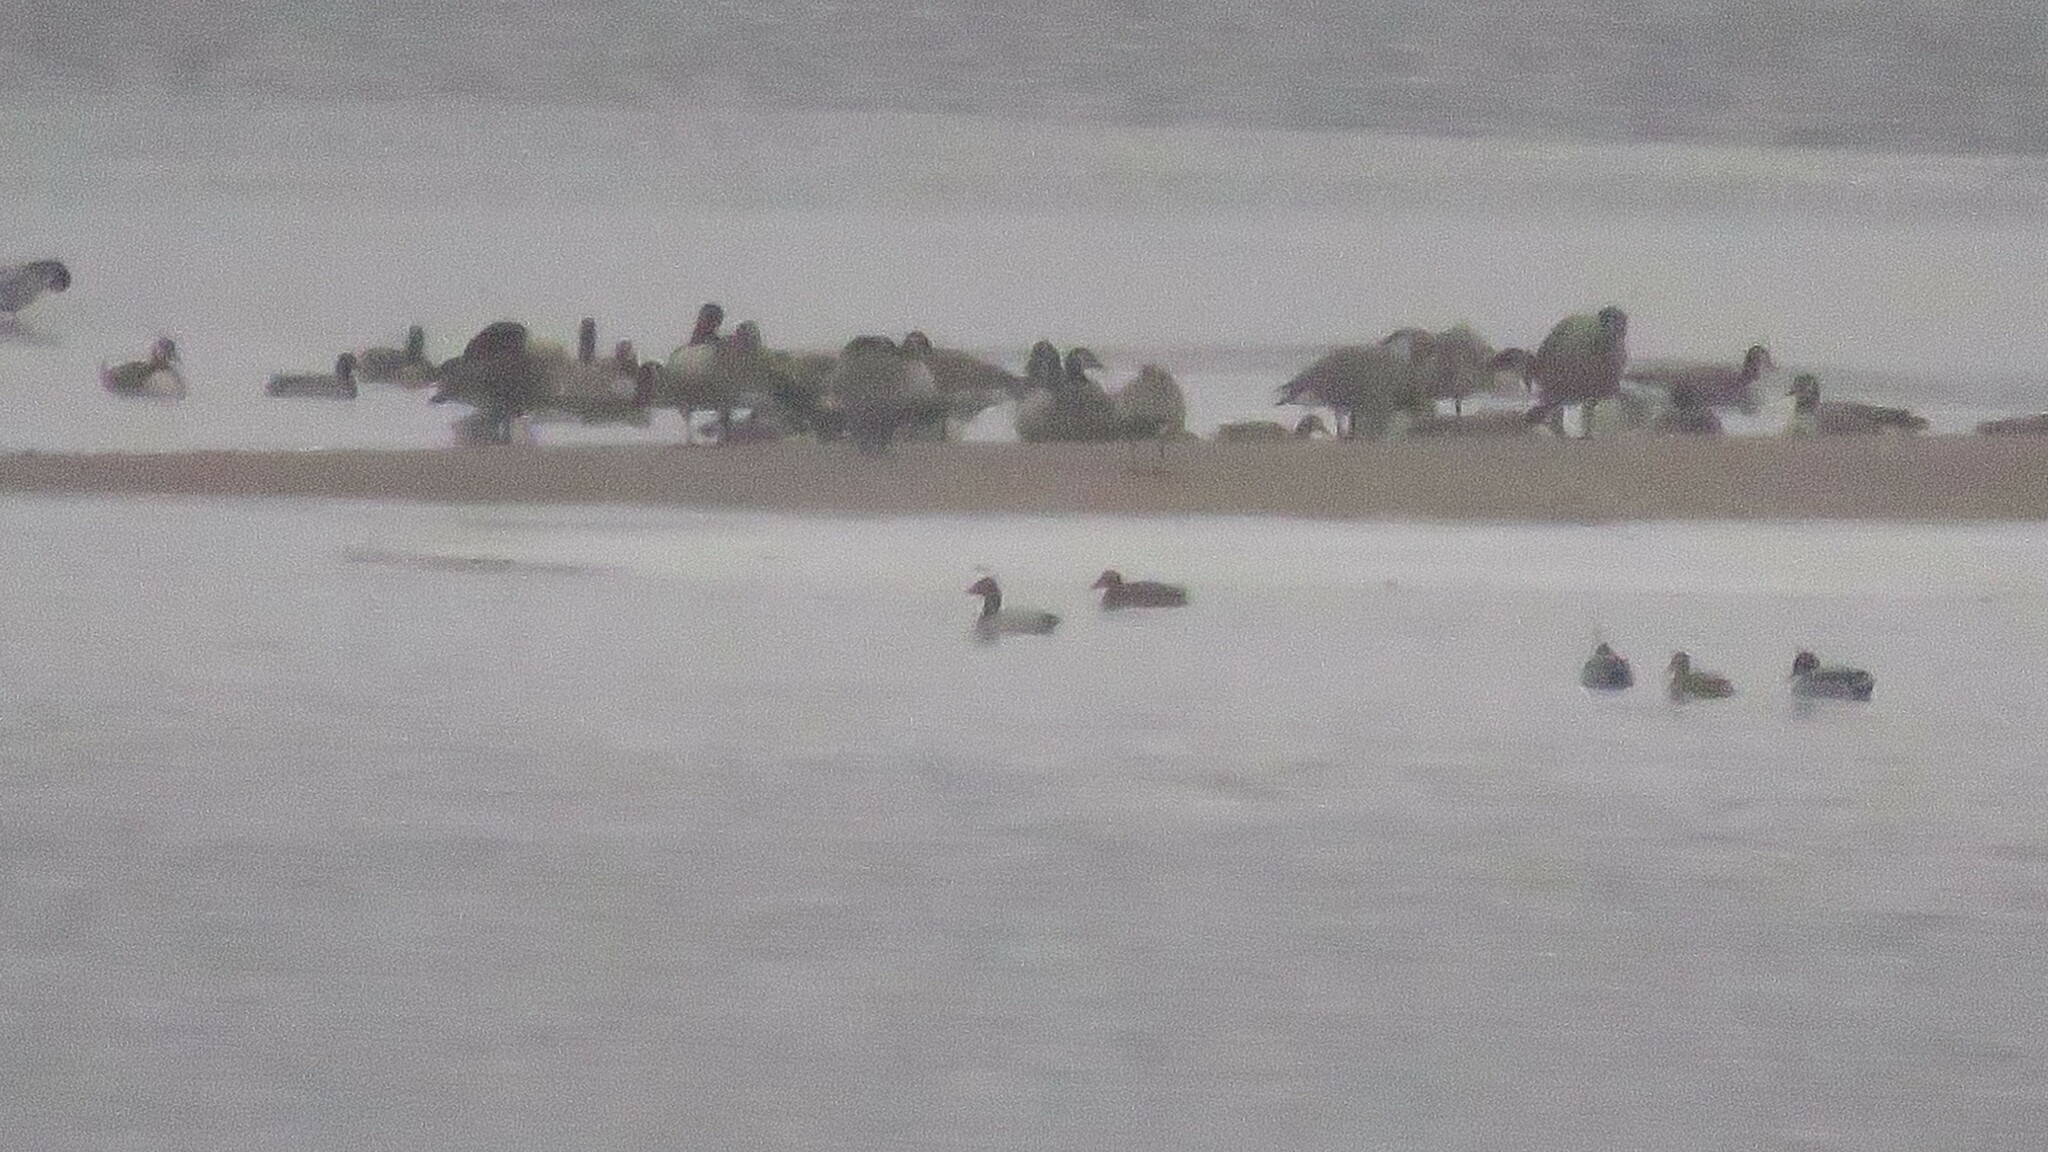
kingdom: Animalia
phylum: Chordata
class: Aves
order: Anseriformes
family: Anatidae
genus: Aythya
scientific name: Aythya valisineria
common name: Canvasback
